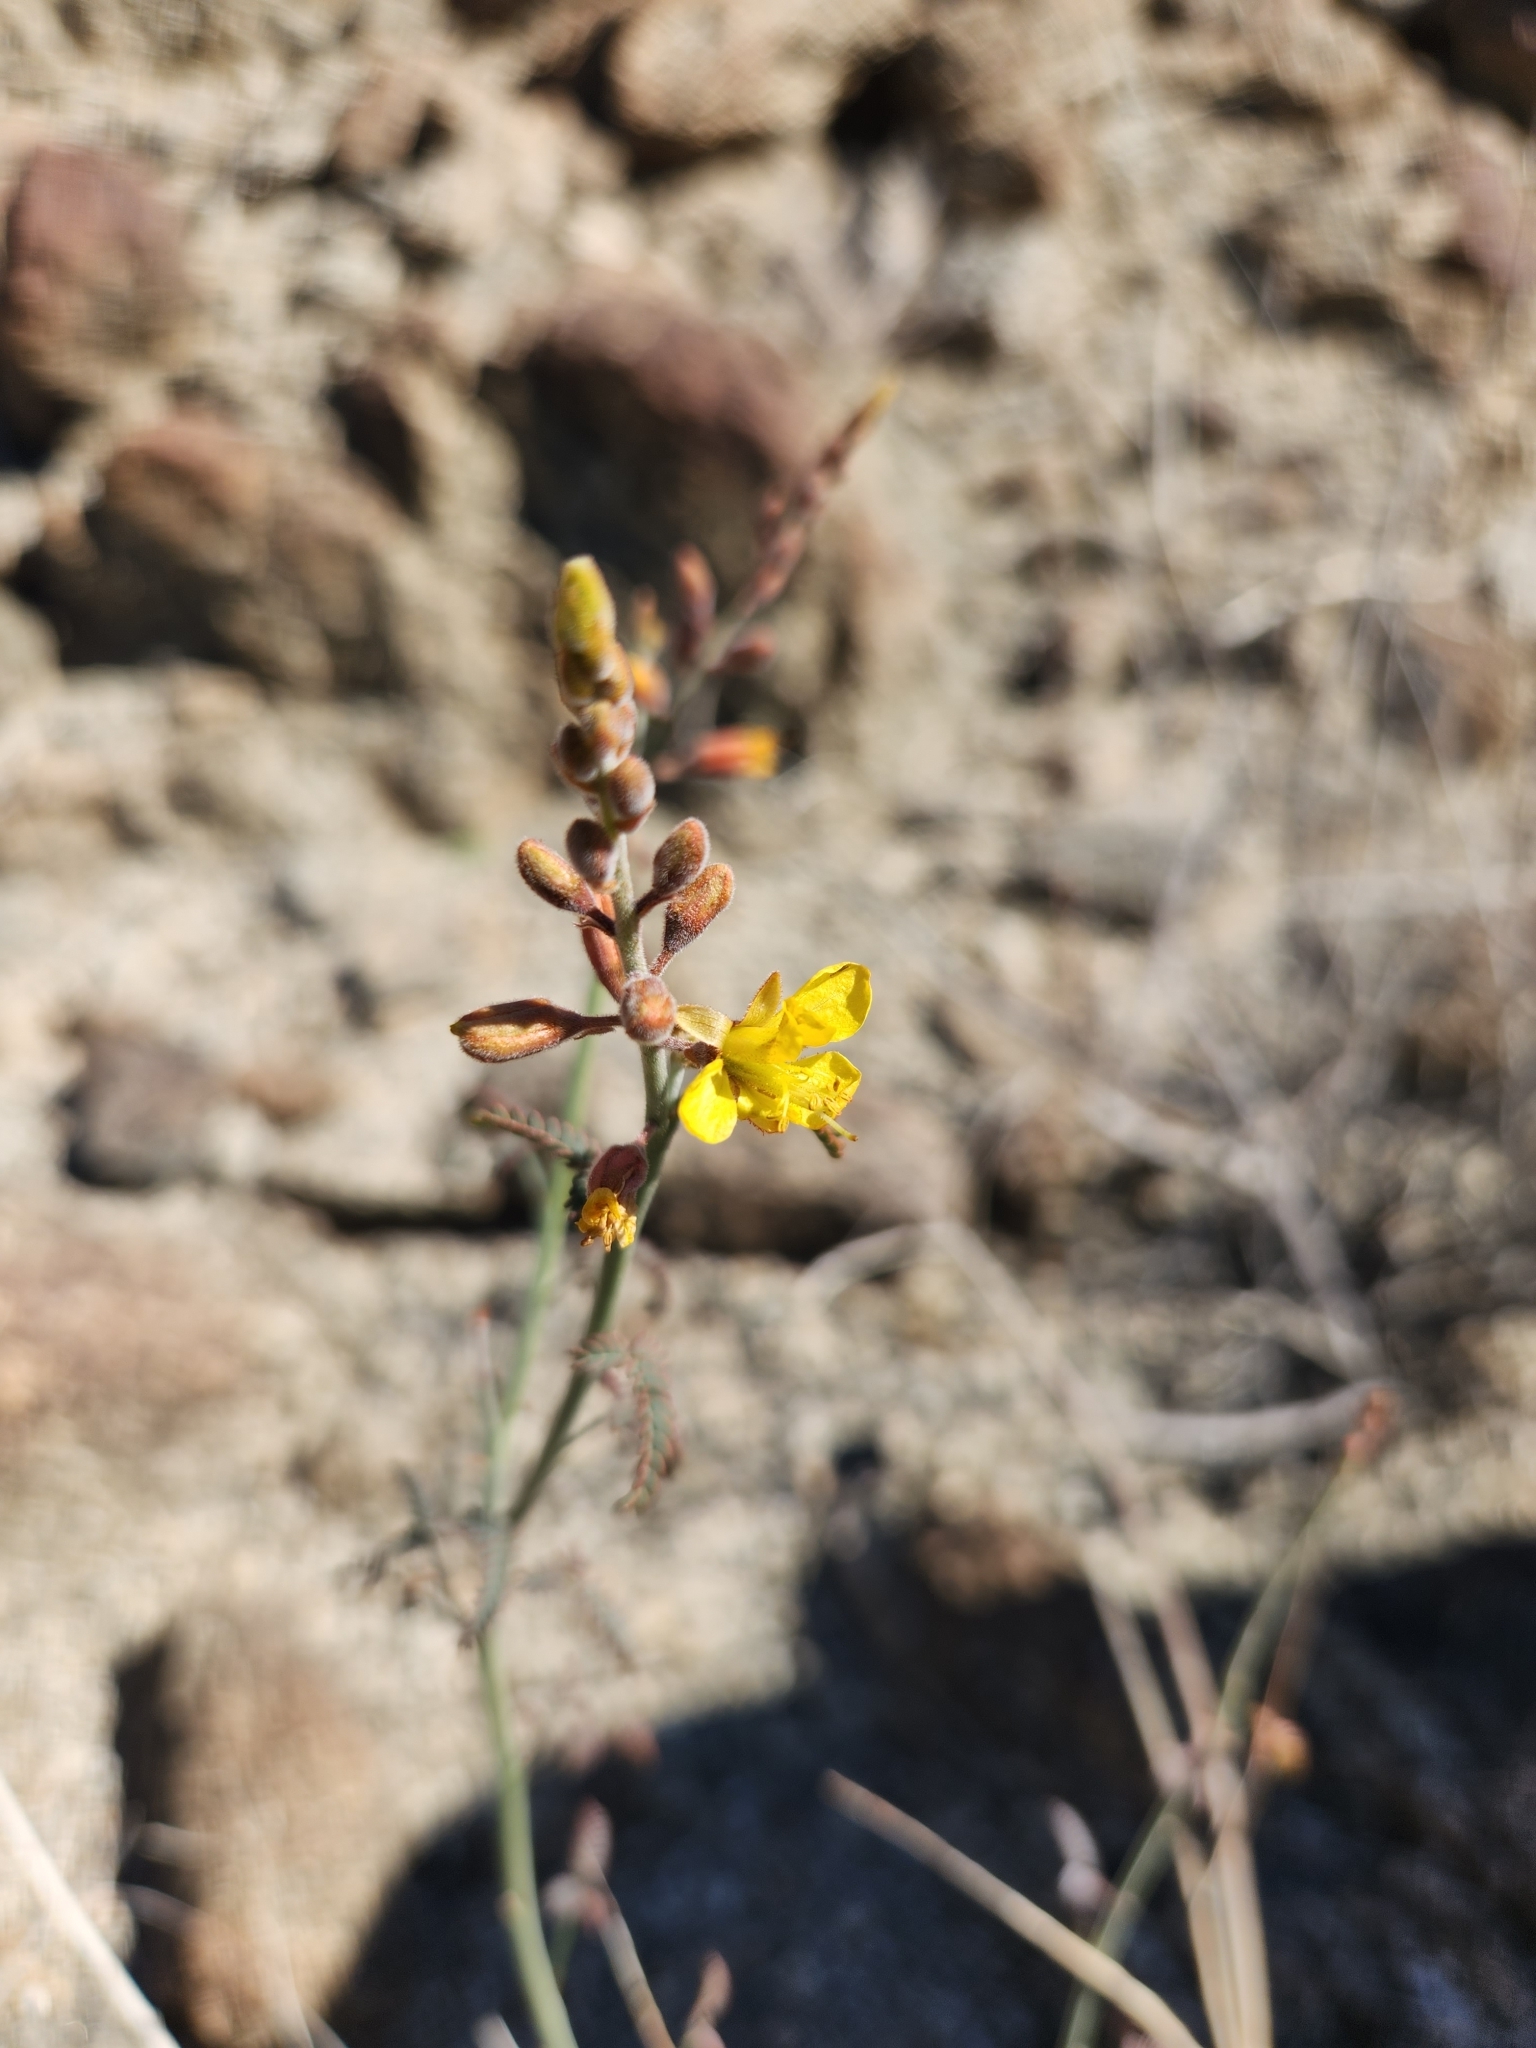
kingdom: Plantae
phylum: Tracheophyta
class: Magnoliopsida
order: Fabales
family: Fabaceae
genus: Hoffmannseggia
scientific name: Hoffmannseggia microphylla
